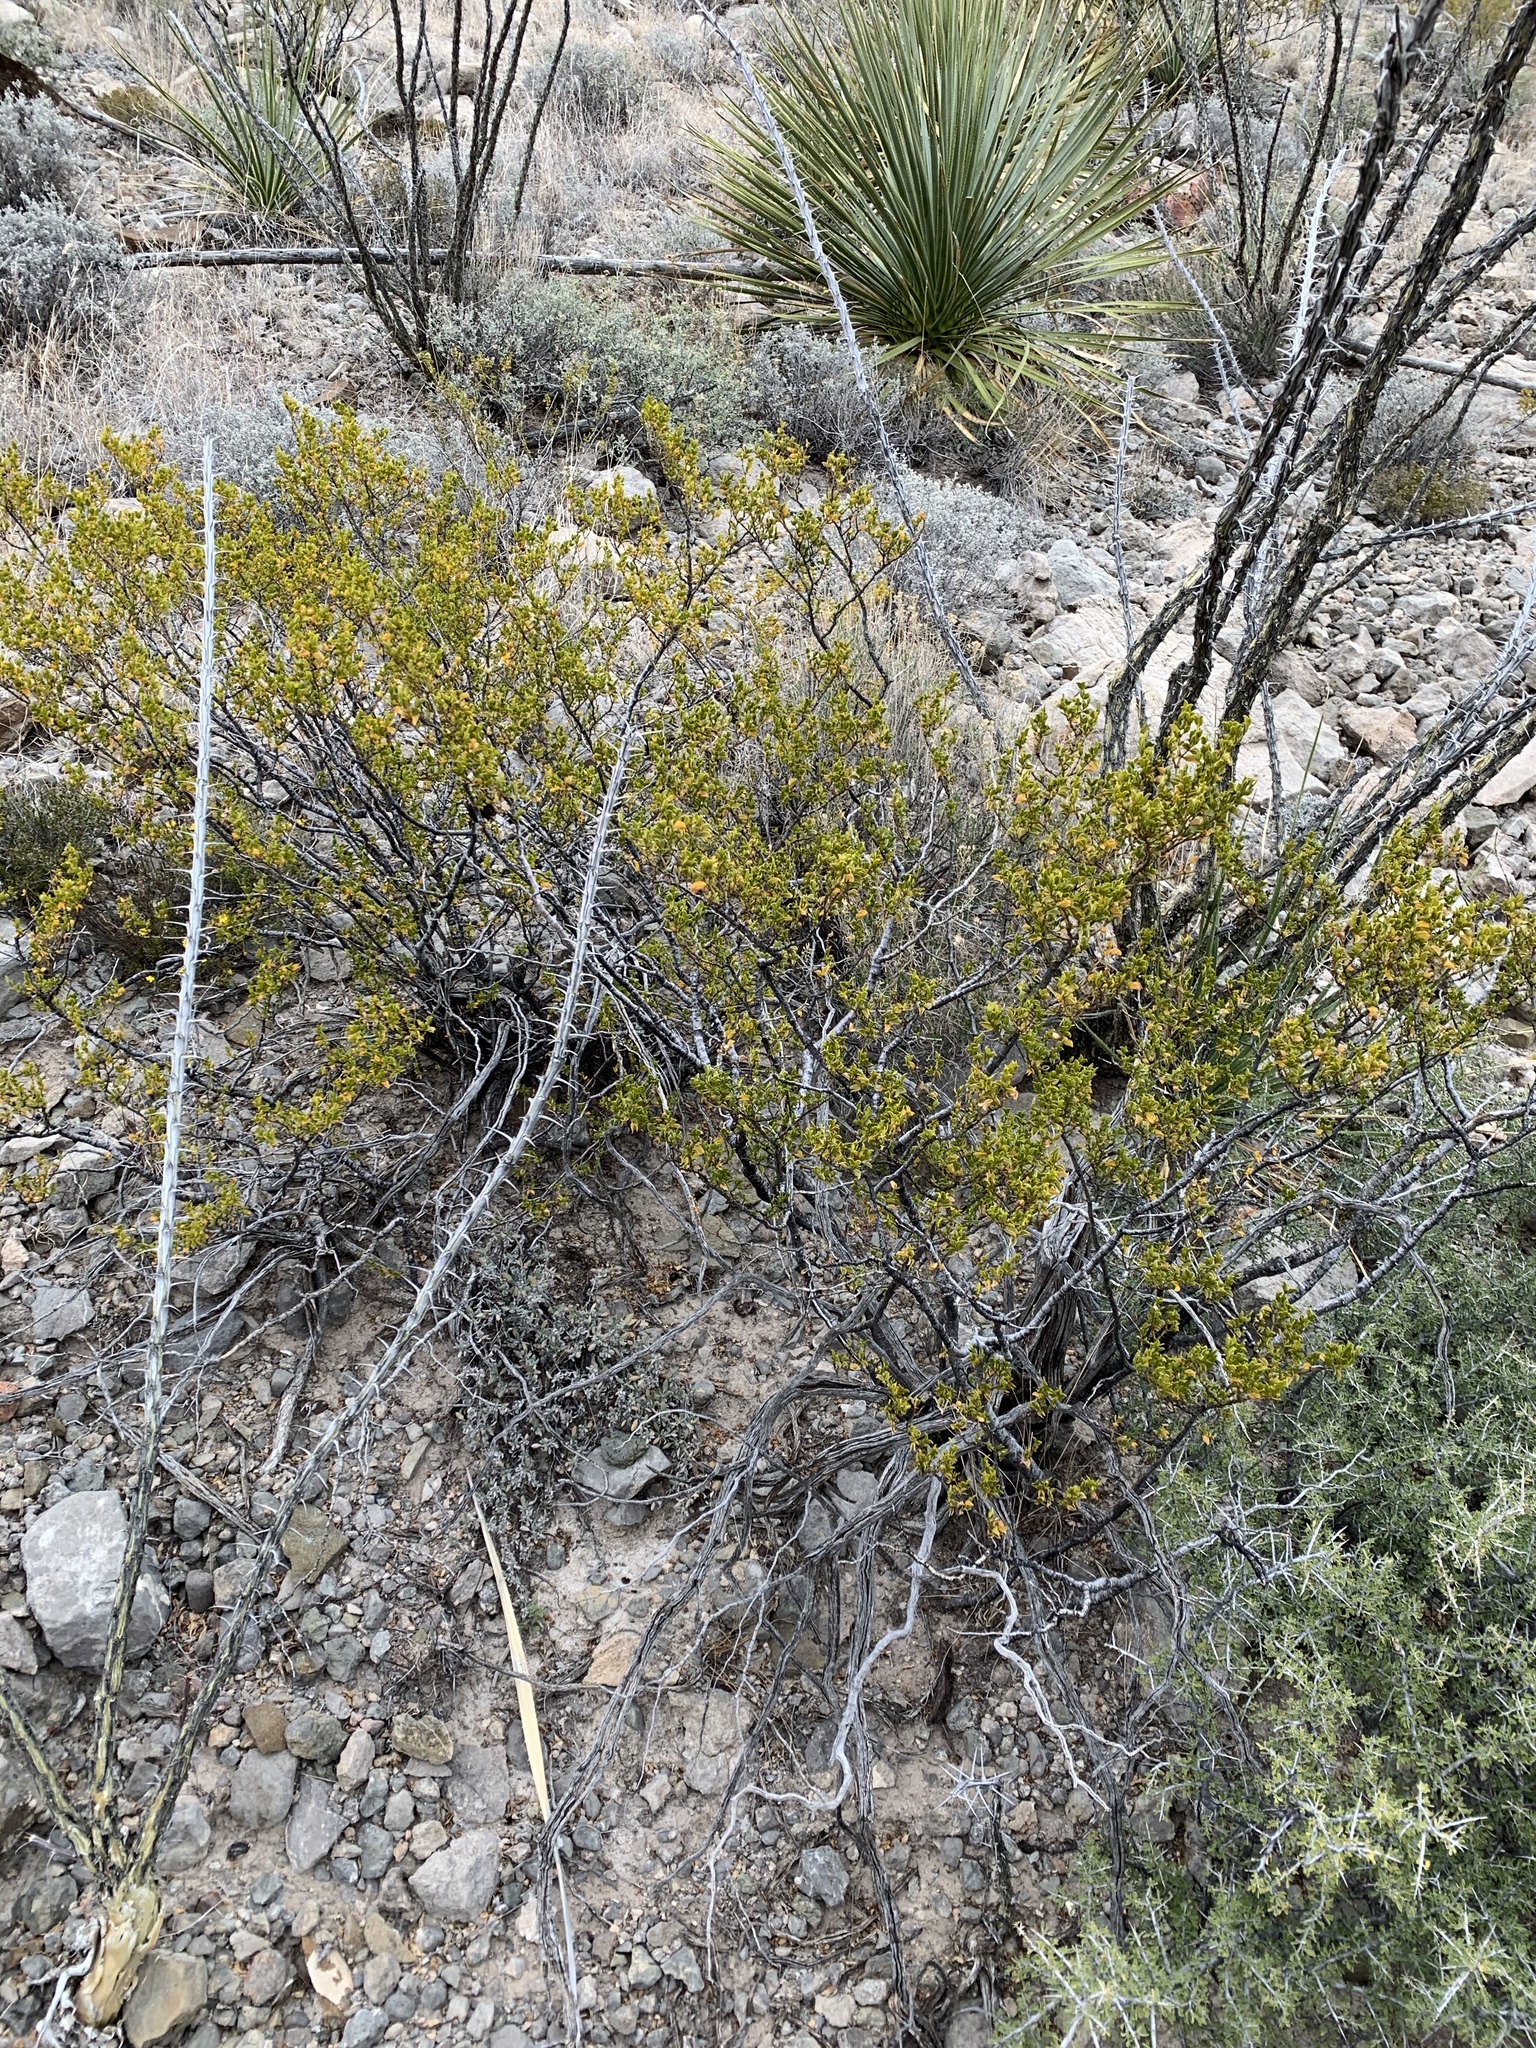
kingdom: Plantae
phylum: Tracheophyta
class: Magnoliopsida
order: Zygophyllales
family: Zygophyllaceae
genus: Larrea
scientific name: Larrea tridentata
